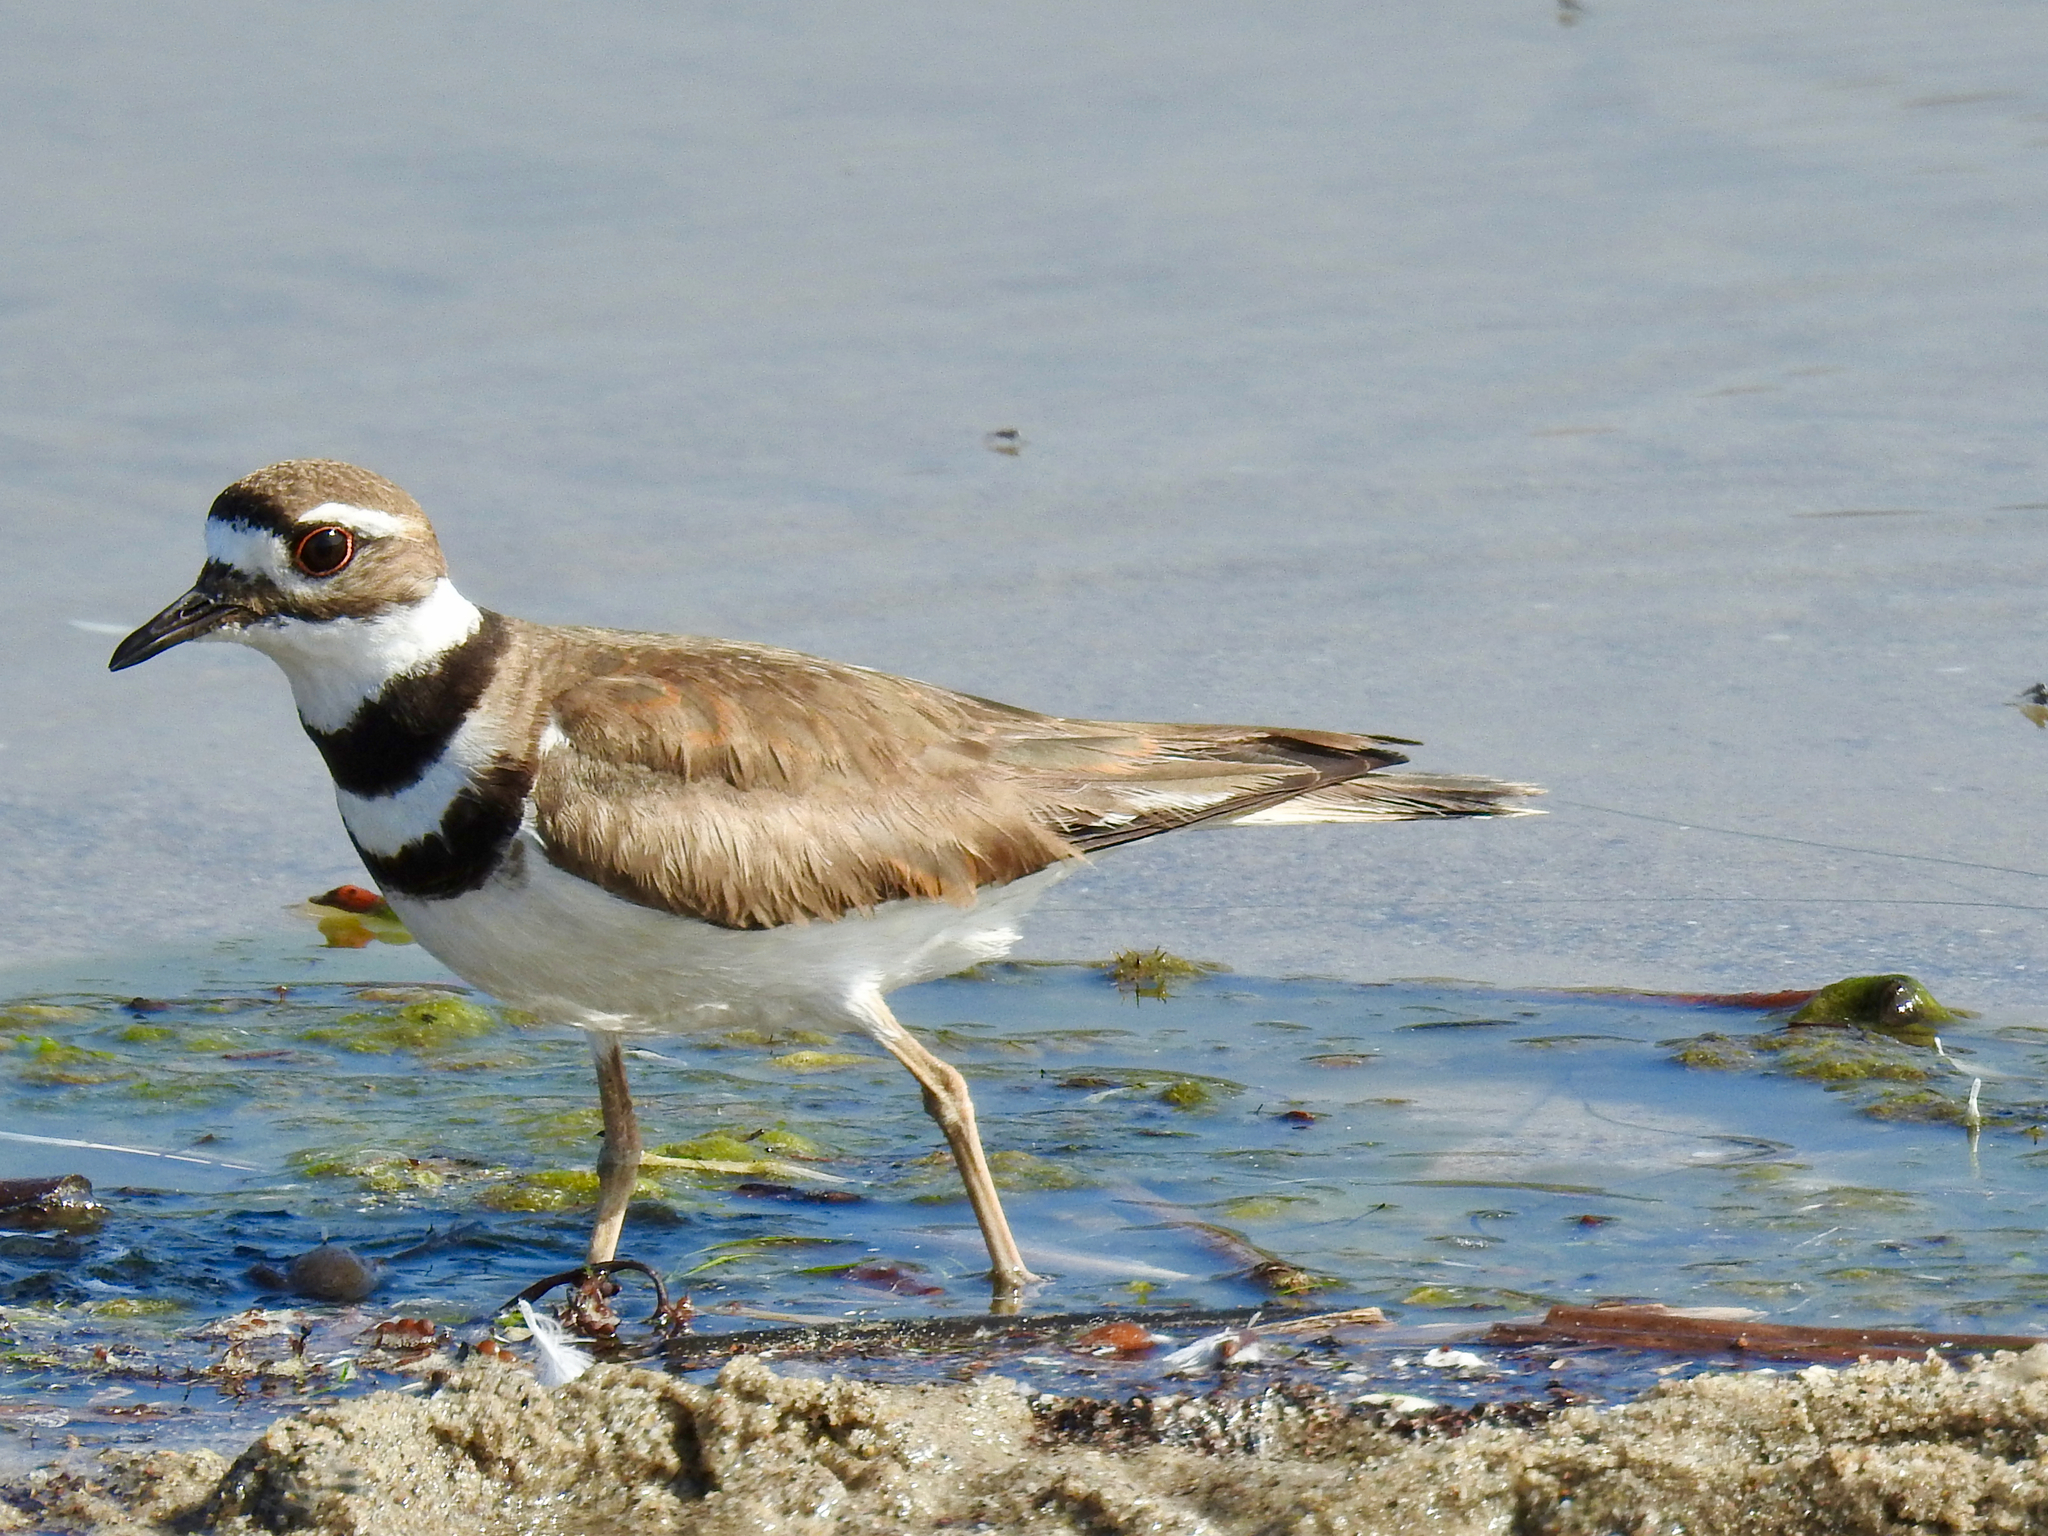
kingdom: Animalia
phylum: Chordata
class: Aves
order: Charadriiformes
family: Charadriidae
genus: Charadrius
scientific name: Charadrius vociferus
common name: Killdeer
